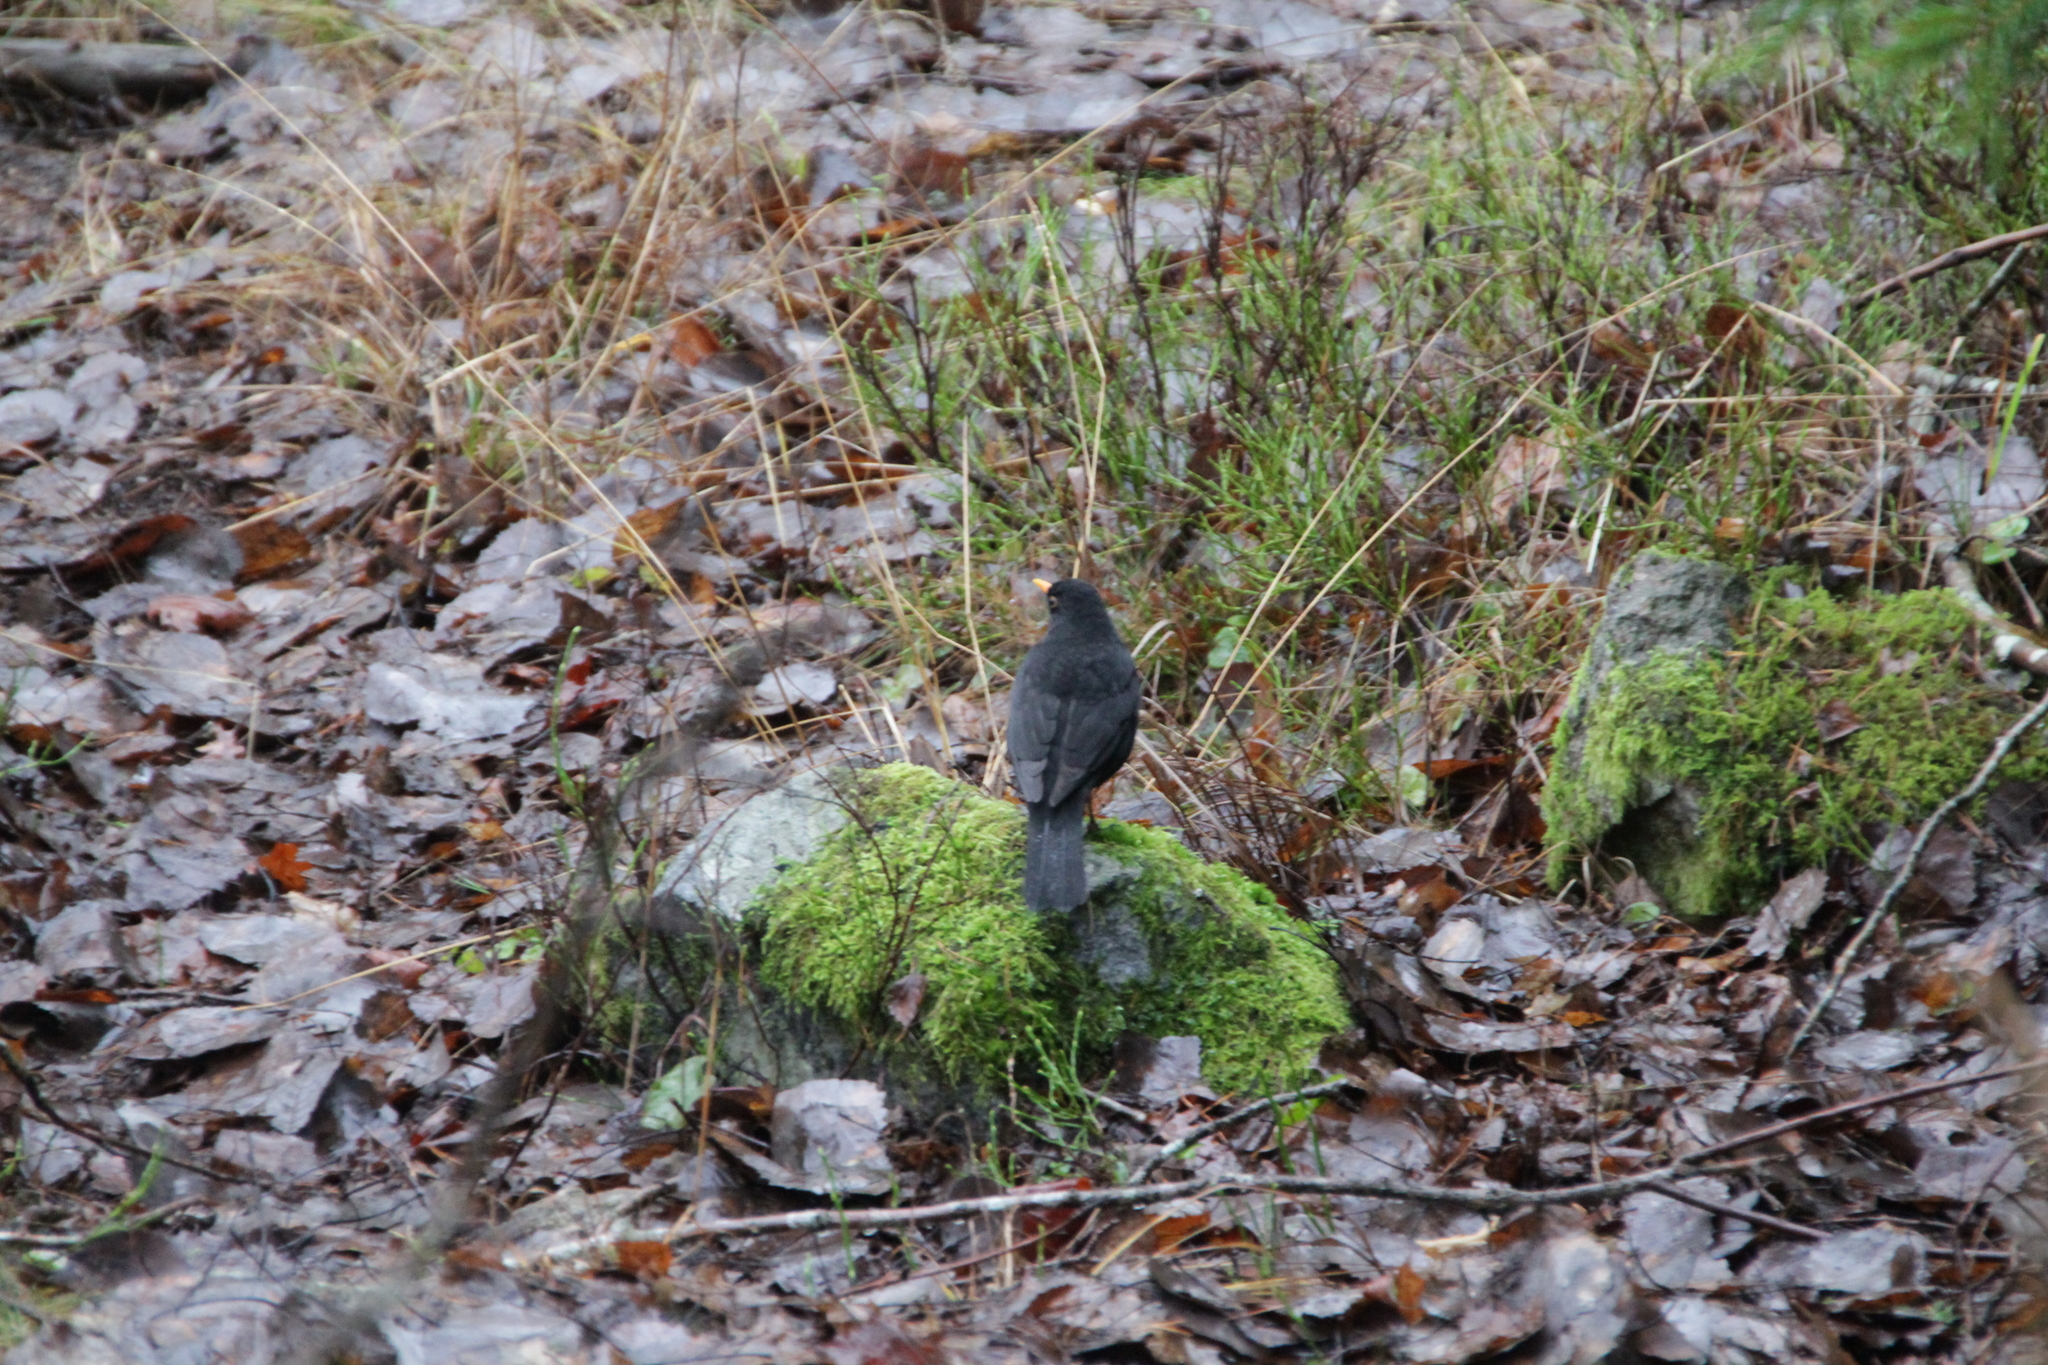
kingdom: Animalia
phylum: Chordata
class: Aves
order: Passeriformes
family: Turdidae
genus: Turdus
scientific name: Turdus merula
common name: Common blackbird
